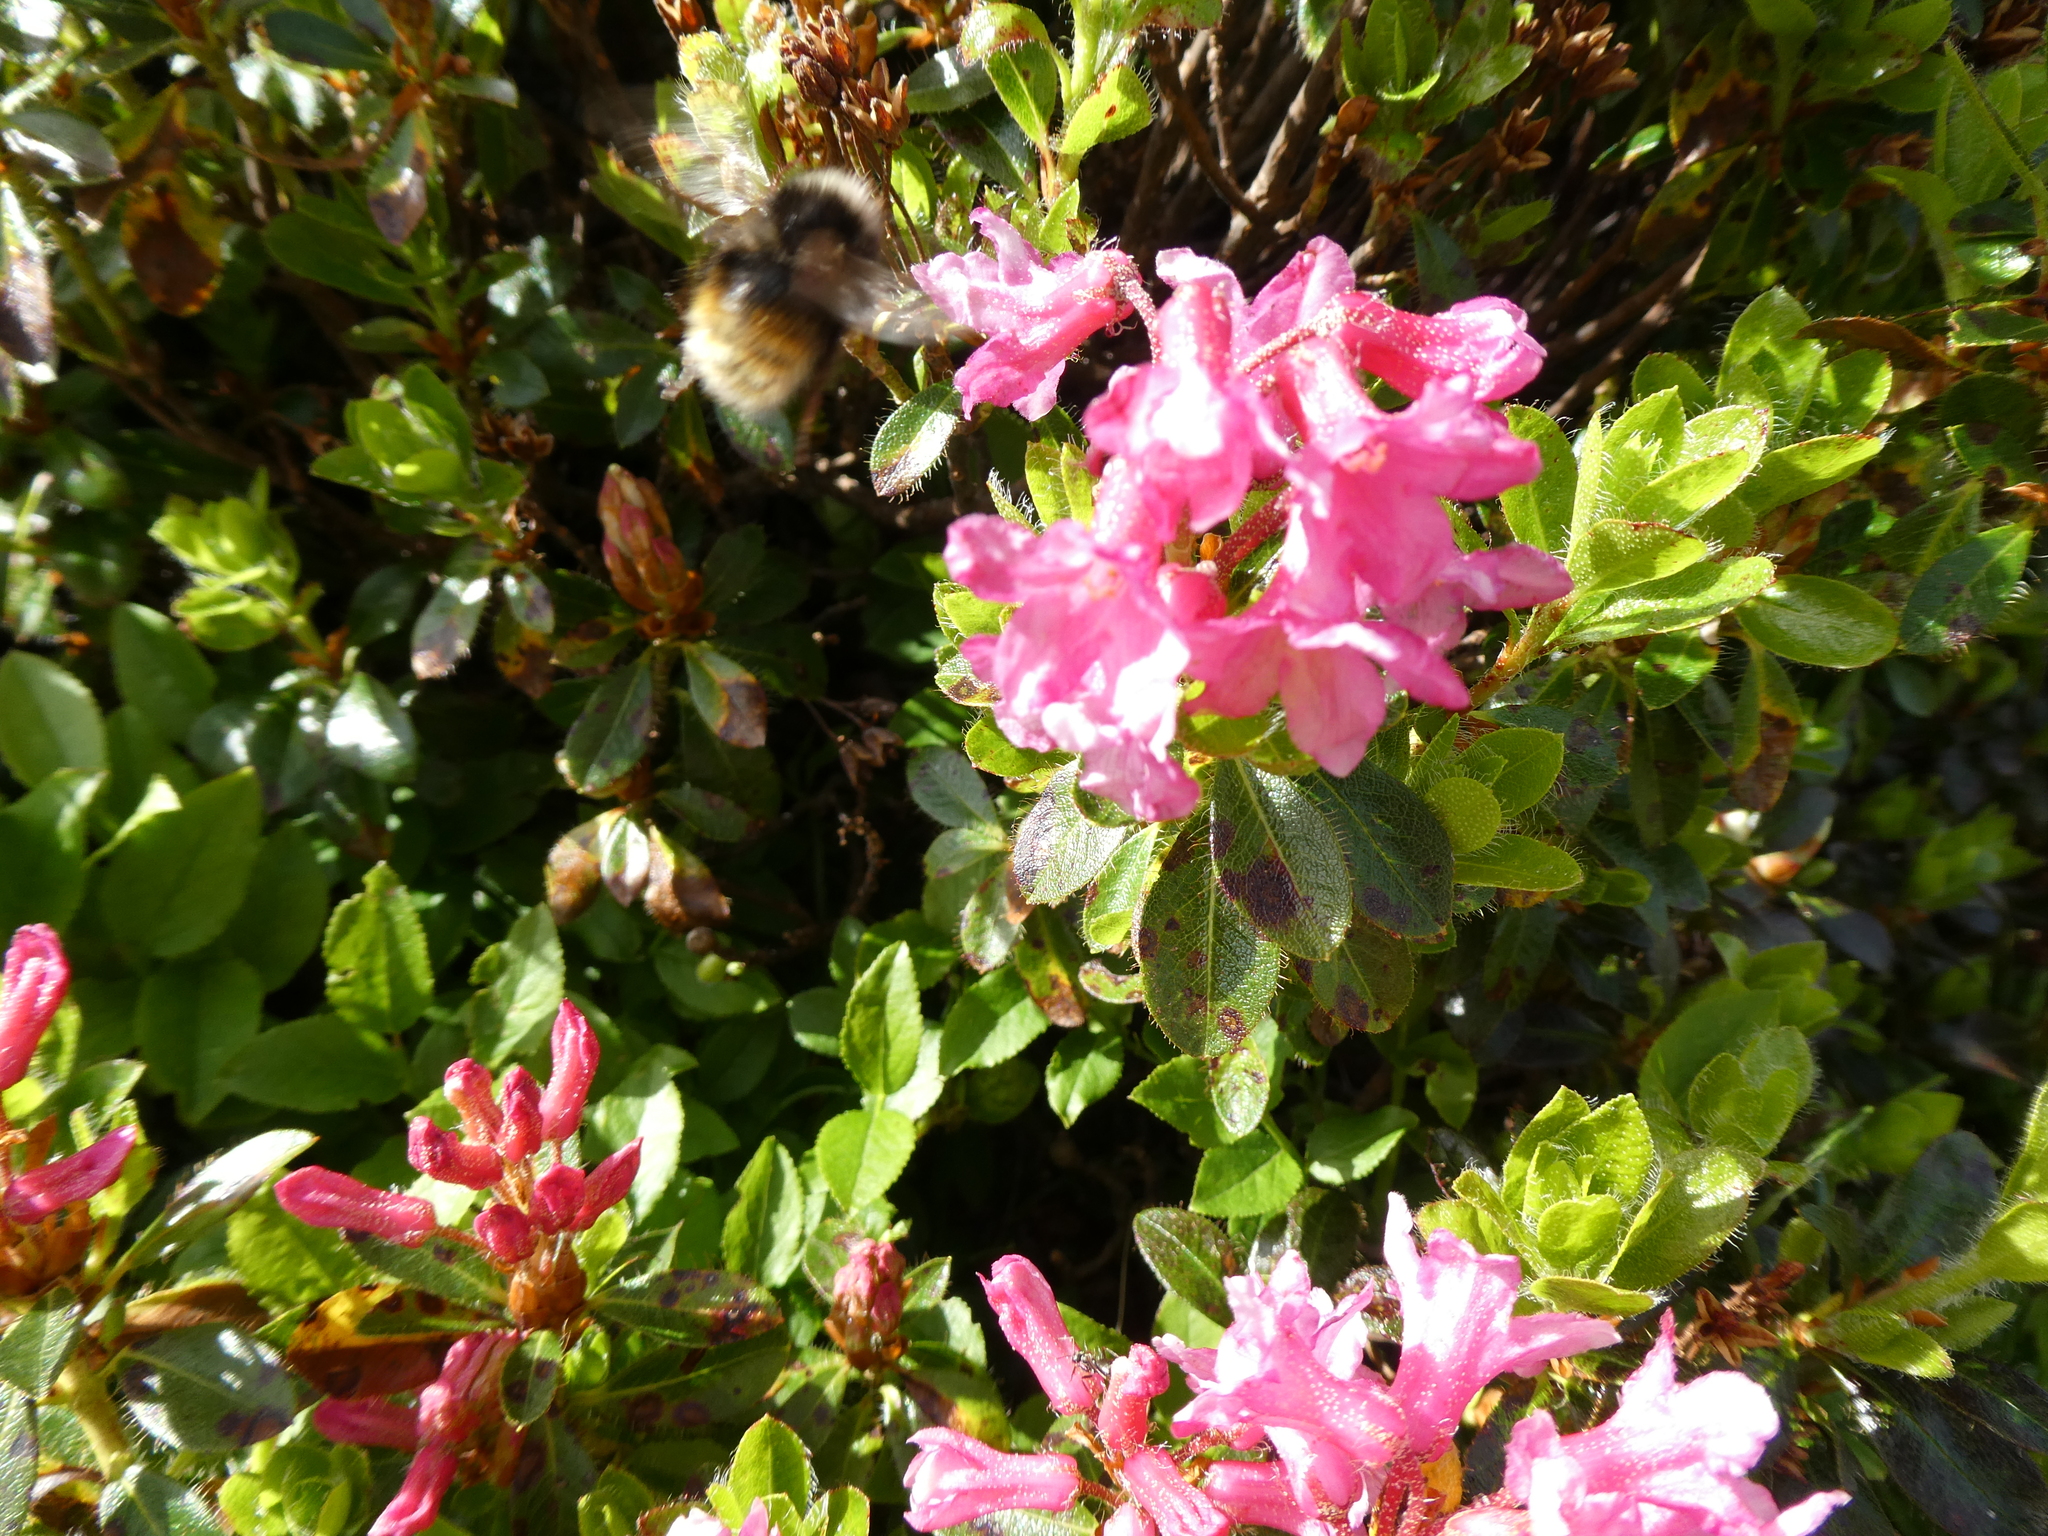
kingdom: Animalia
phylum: Arthropoda
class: Insecta
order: Hymenoptera
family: Apidae
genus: Bombus
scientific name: Bombus monticola
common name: Bilberry humble-bee
